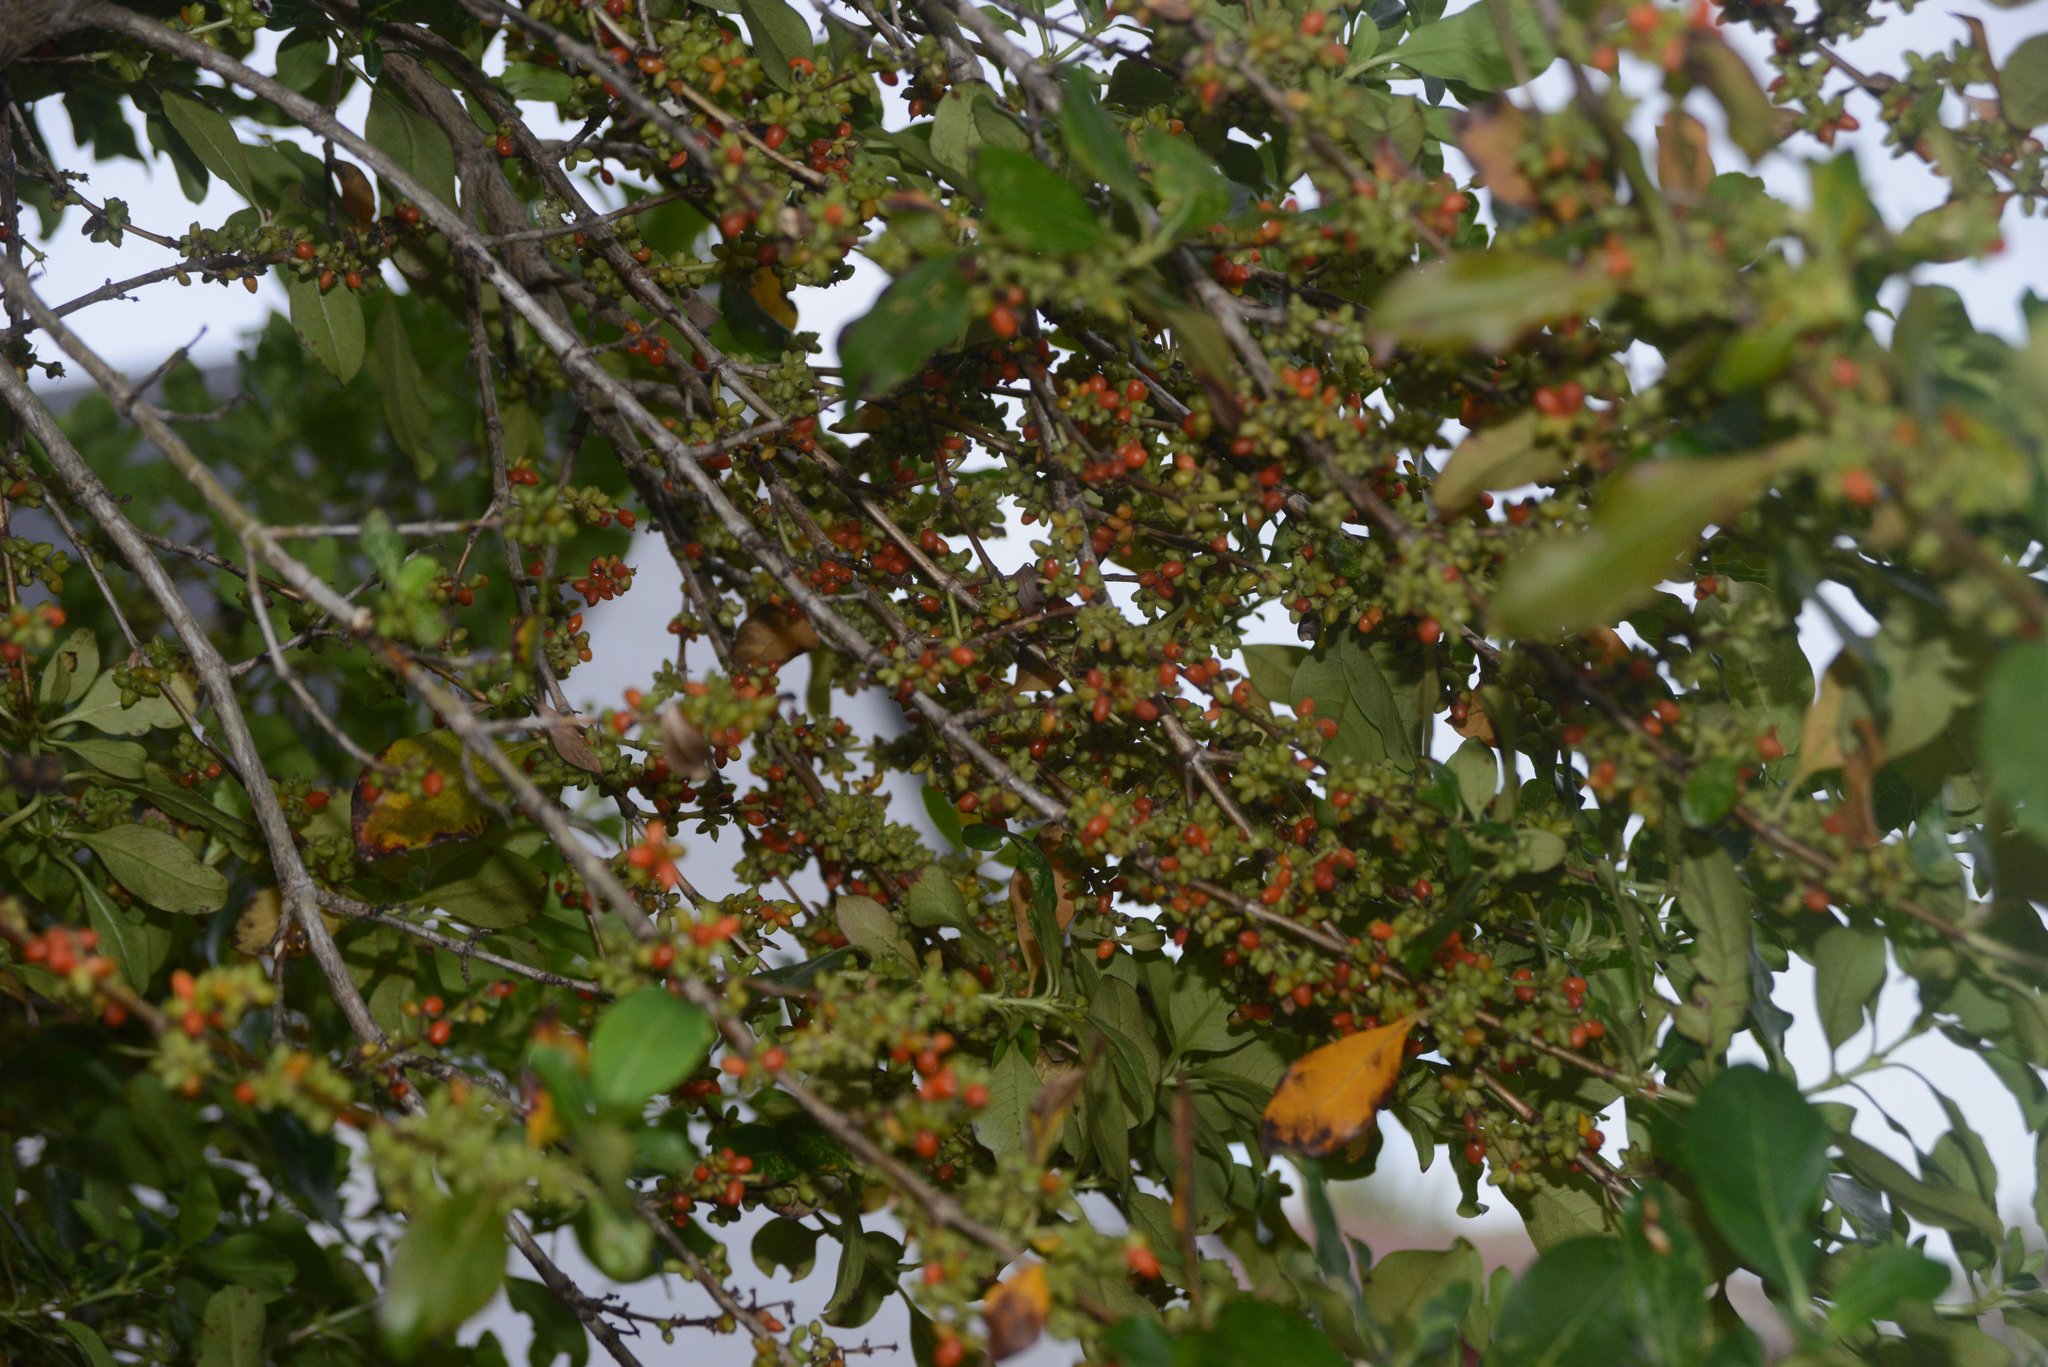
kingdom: Plantae
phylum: Tracheophyta
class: Magnoliopsida
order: Gentianales
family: Rubiaceae
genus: Coprosma
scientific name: Coprosma robusta
